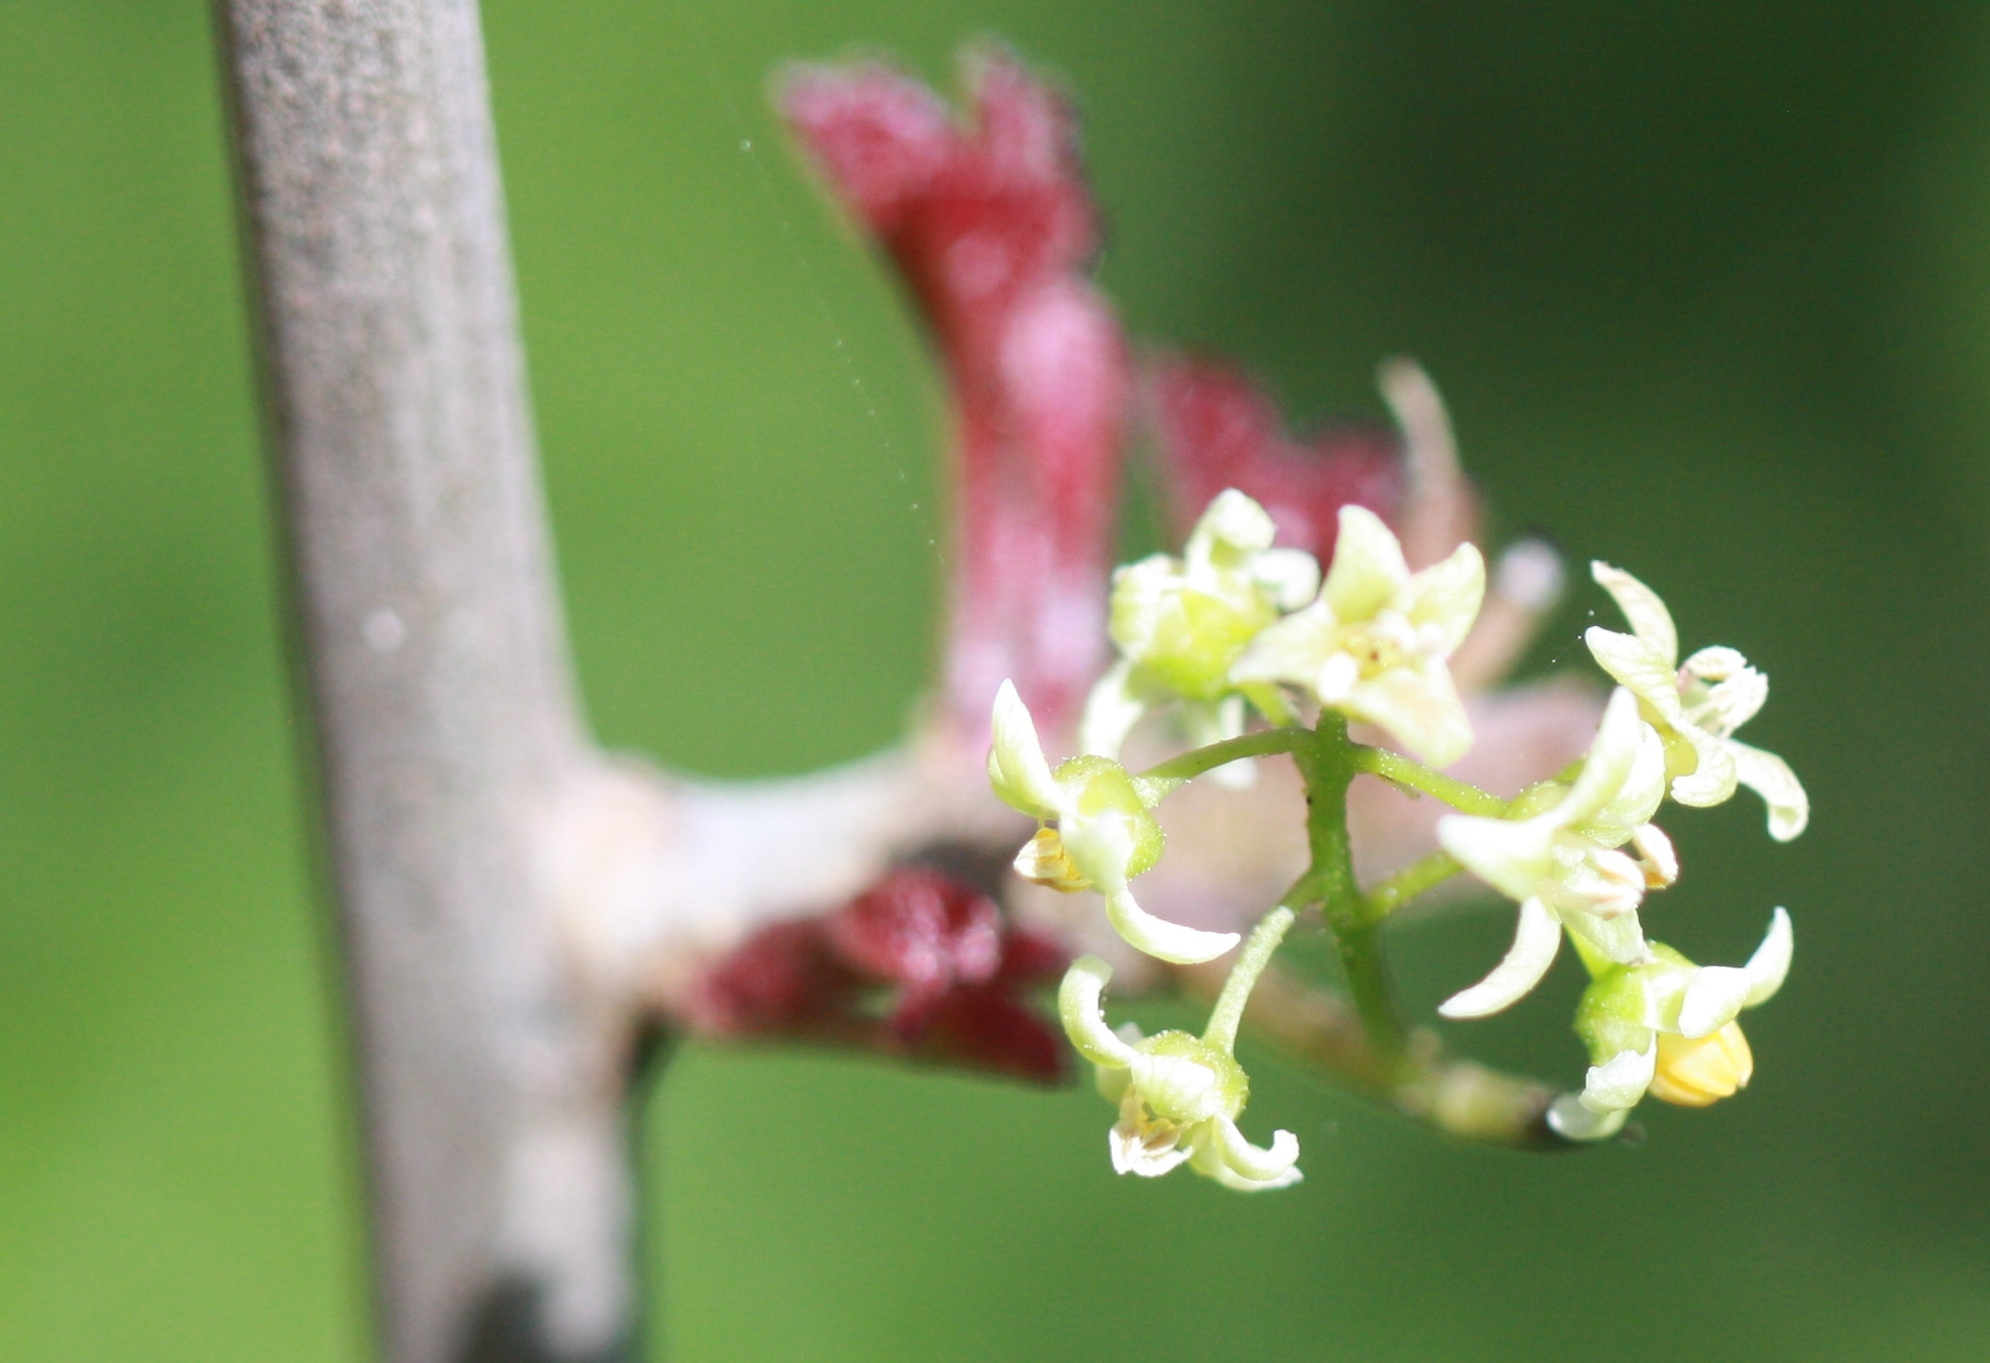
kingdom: Plantae
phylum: Tracheophyta
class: Magnoliopsida
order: Sapindales
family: Anacardiaceae
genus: Toxicodendron
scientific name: Toxicodendron diversilobum
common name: Pacific poison-oak
